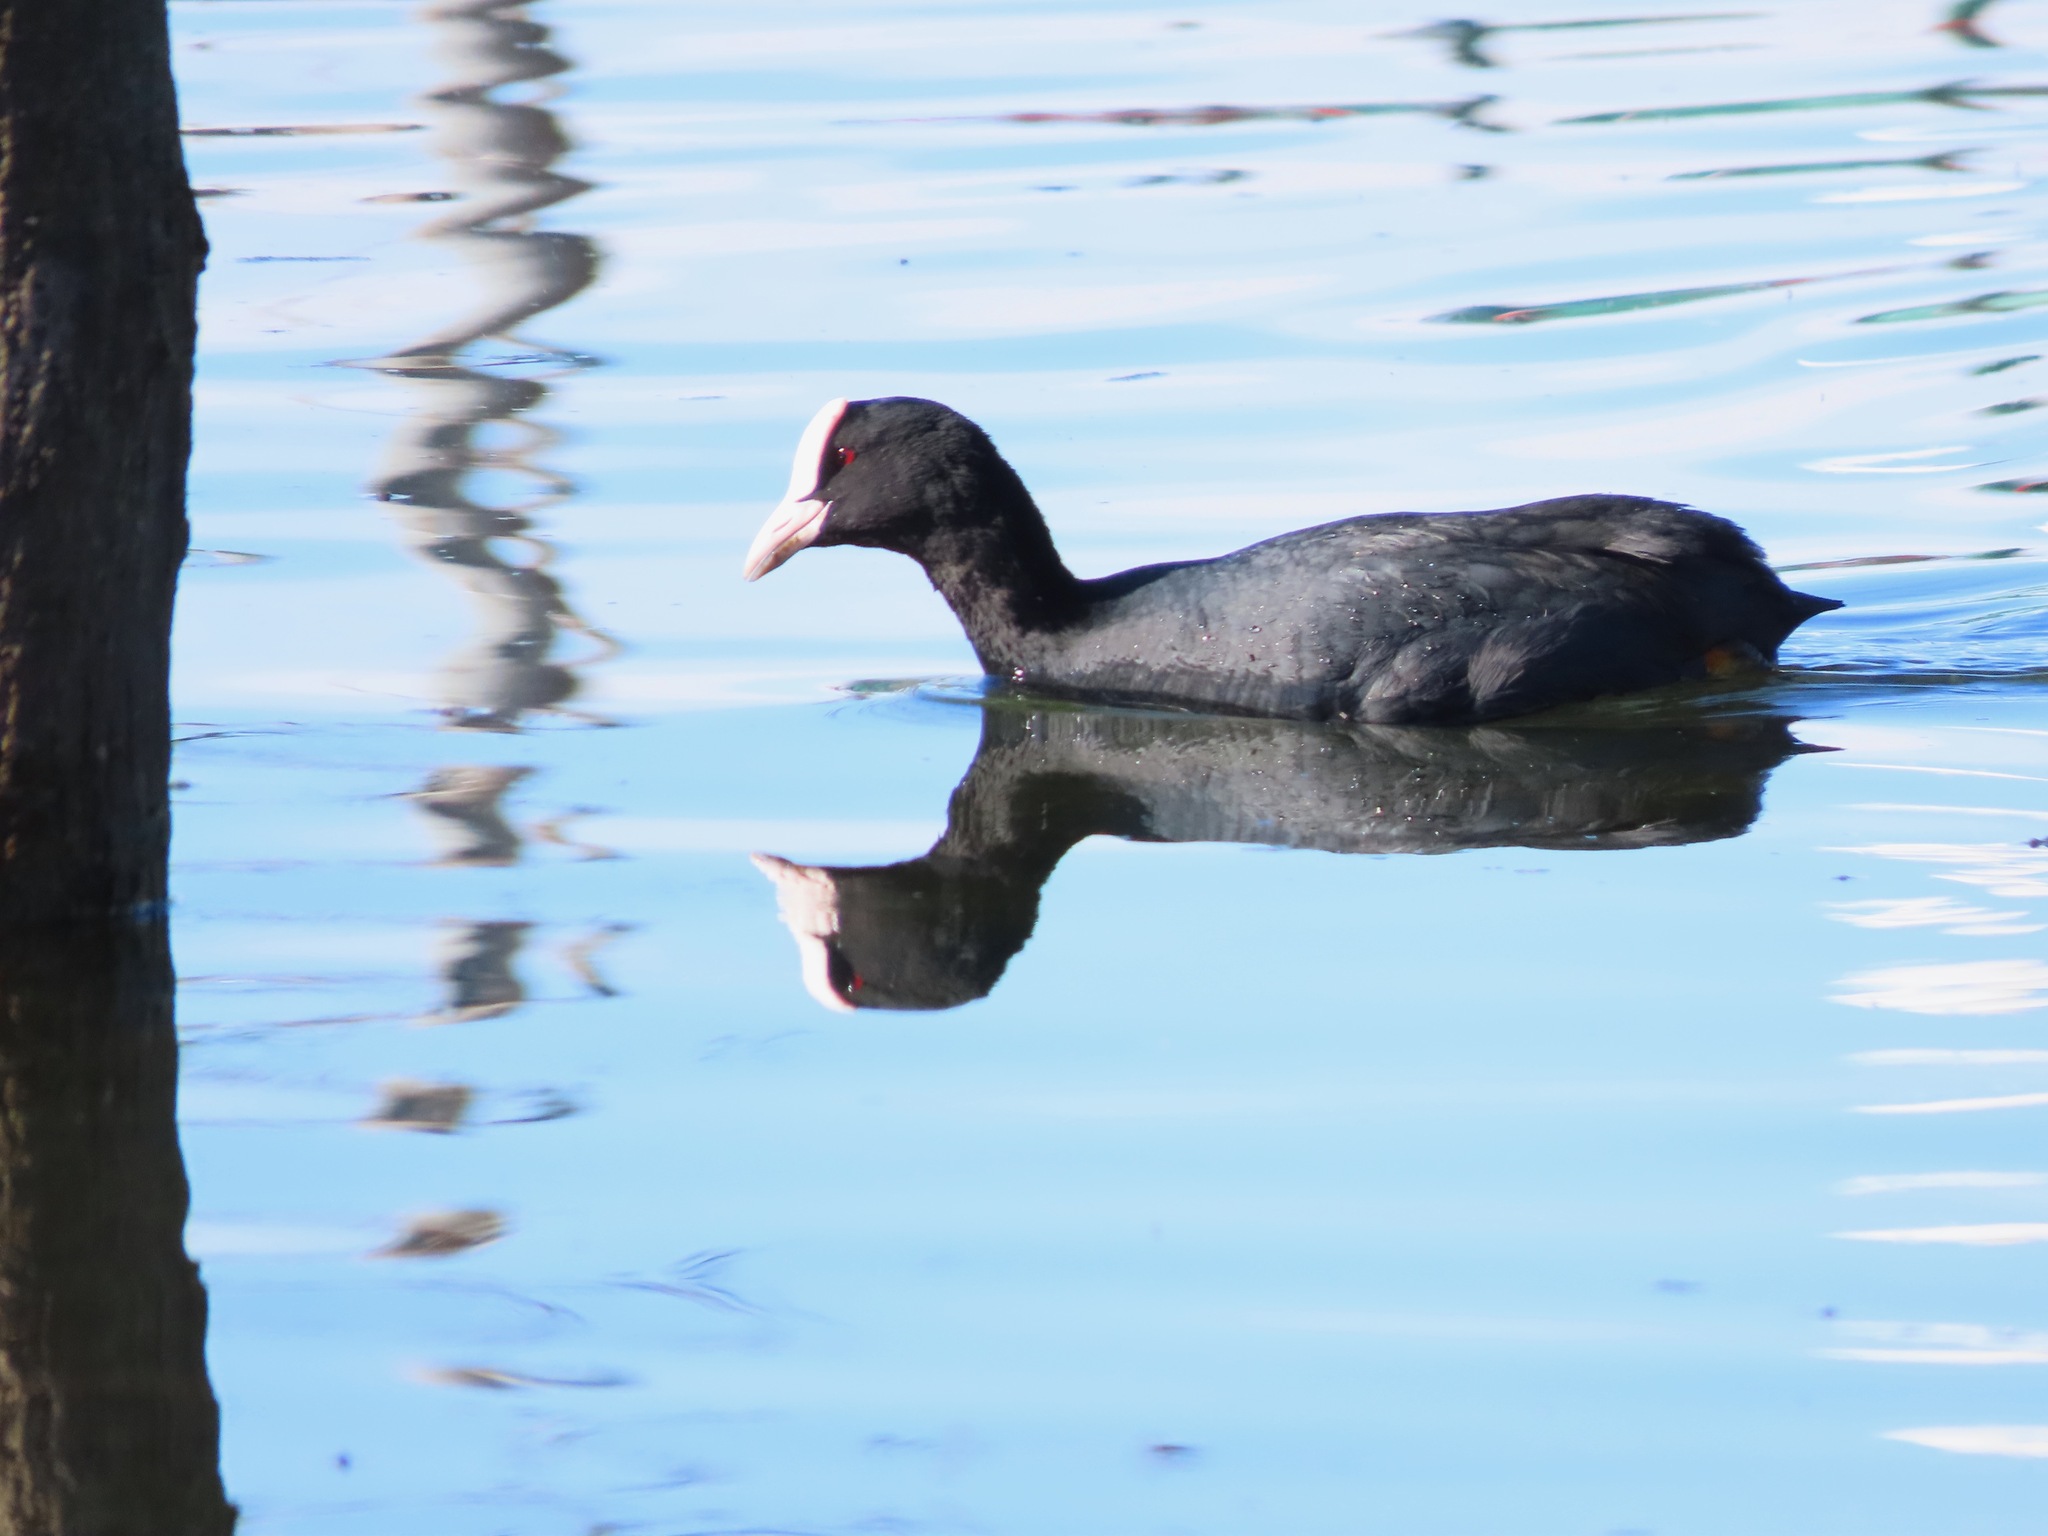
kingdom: Animalia
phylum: Chordata
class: Aves
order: Gruiformes
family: Rallidae
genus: Fulica
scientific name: Fulica atra
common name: Eurasian coot
